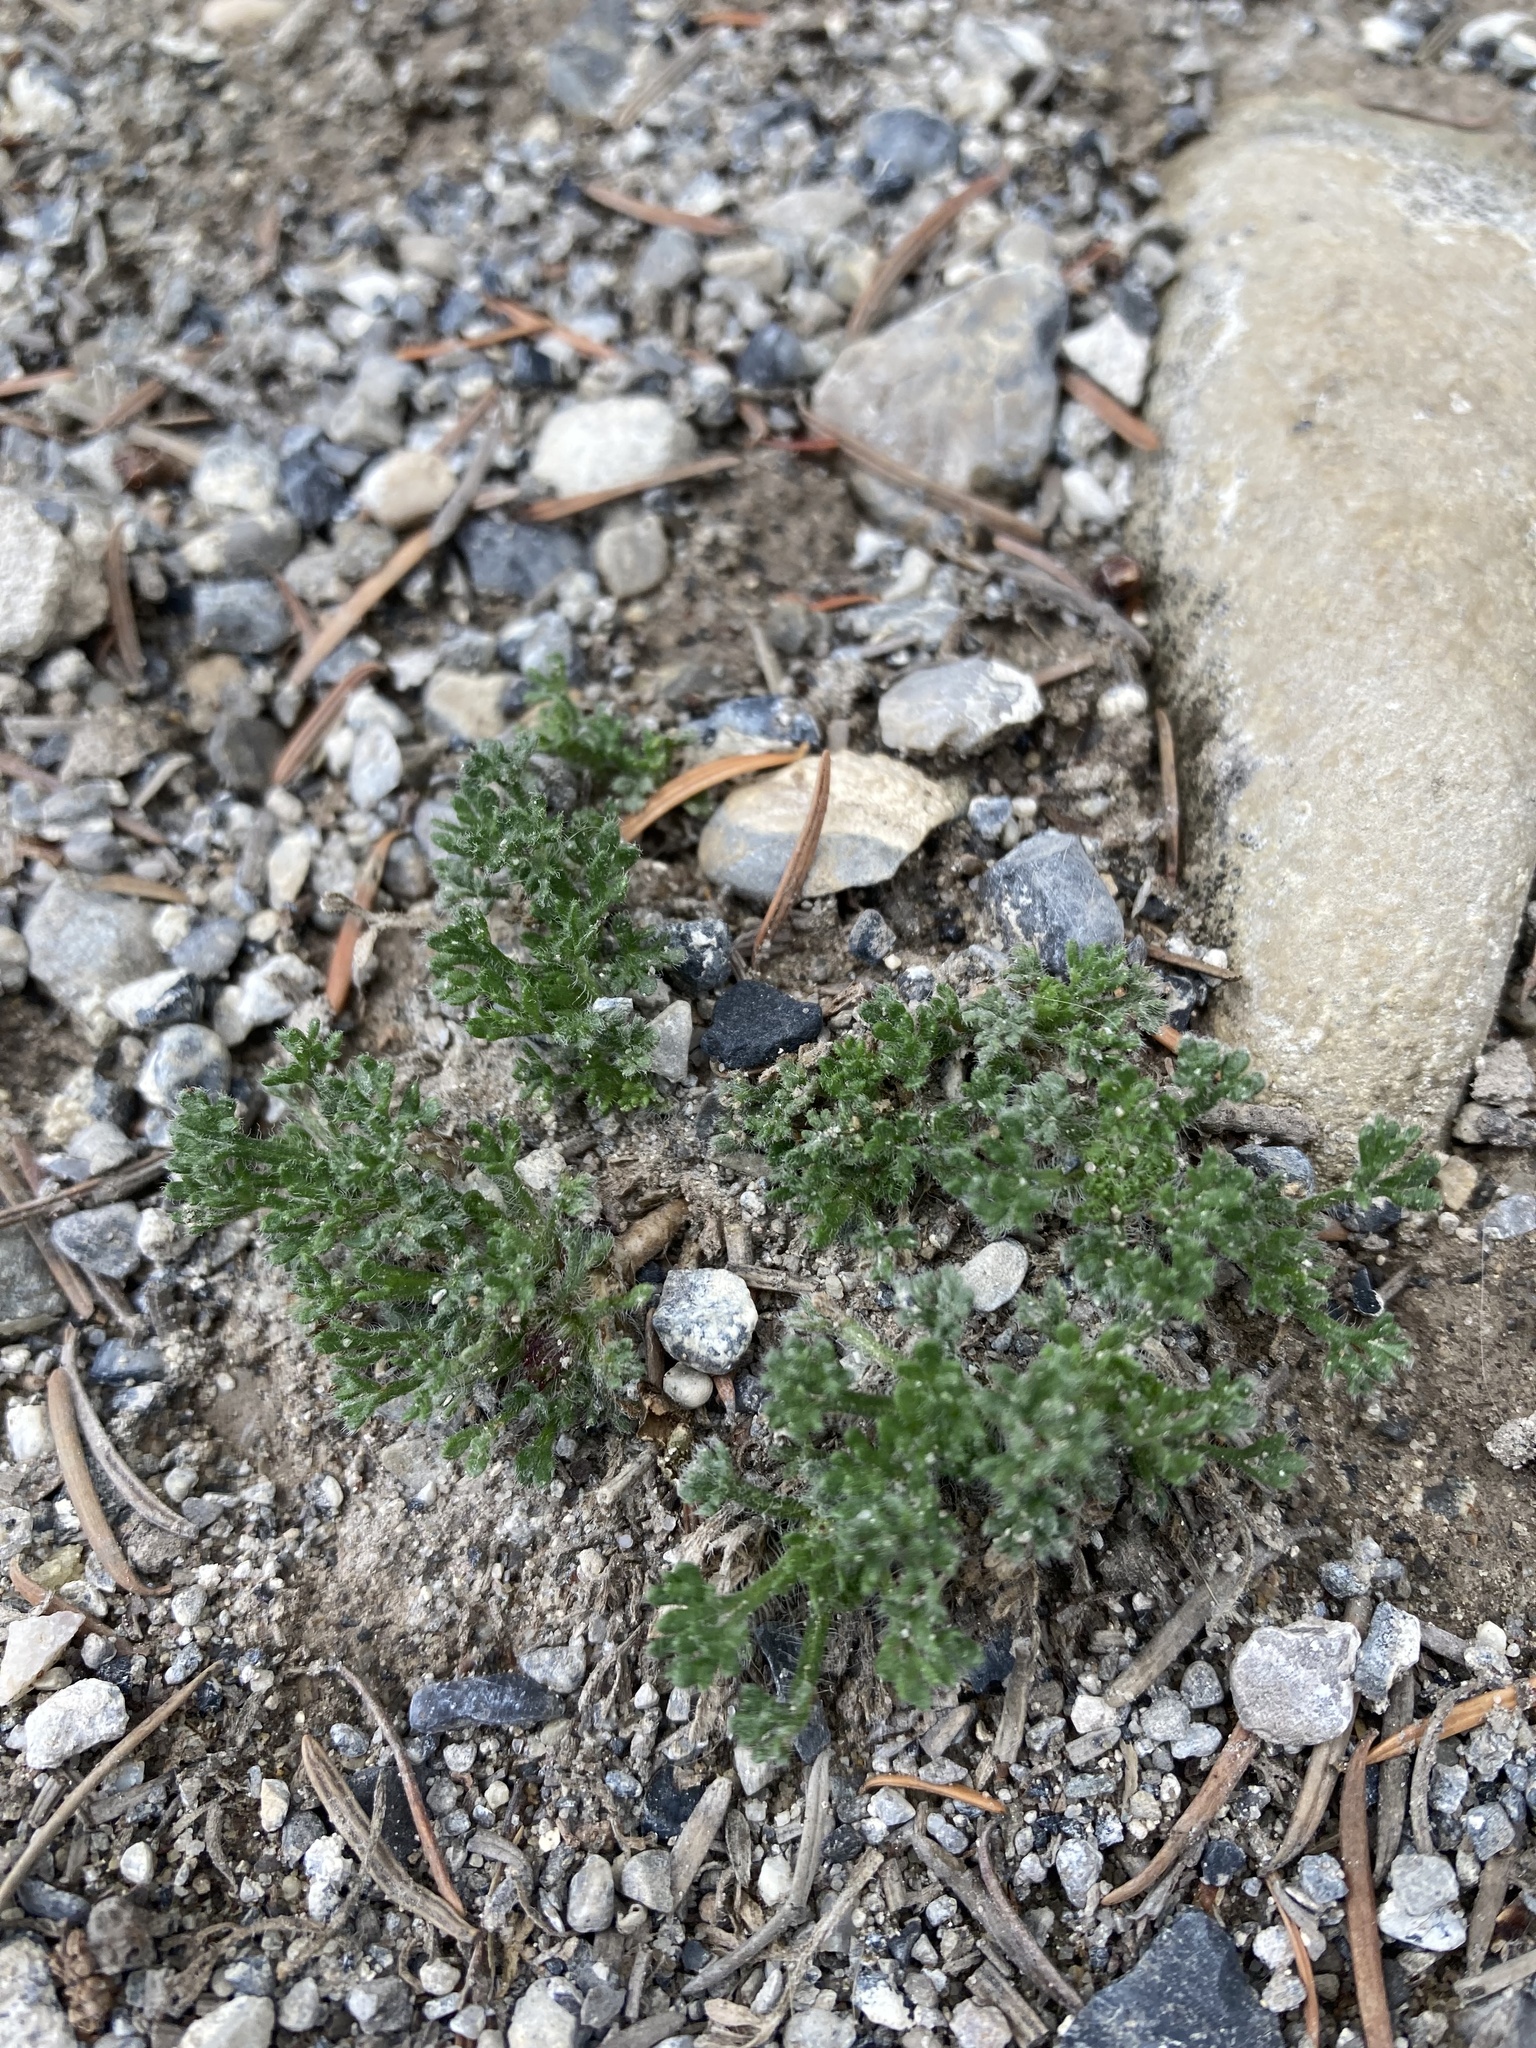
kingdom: Plantae
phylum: Tracheophyta
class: Magnoliopsida
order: Asterales
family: Asteraceae
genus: Erigeron
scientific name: Erigeron compositus
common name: Dwarf mountain fleabane
